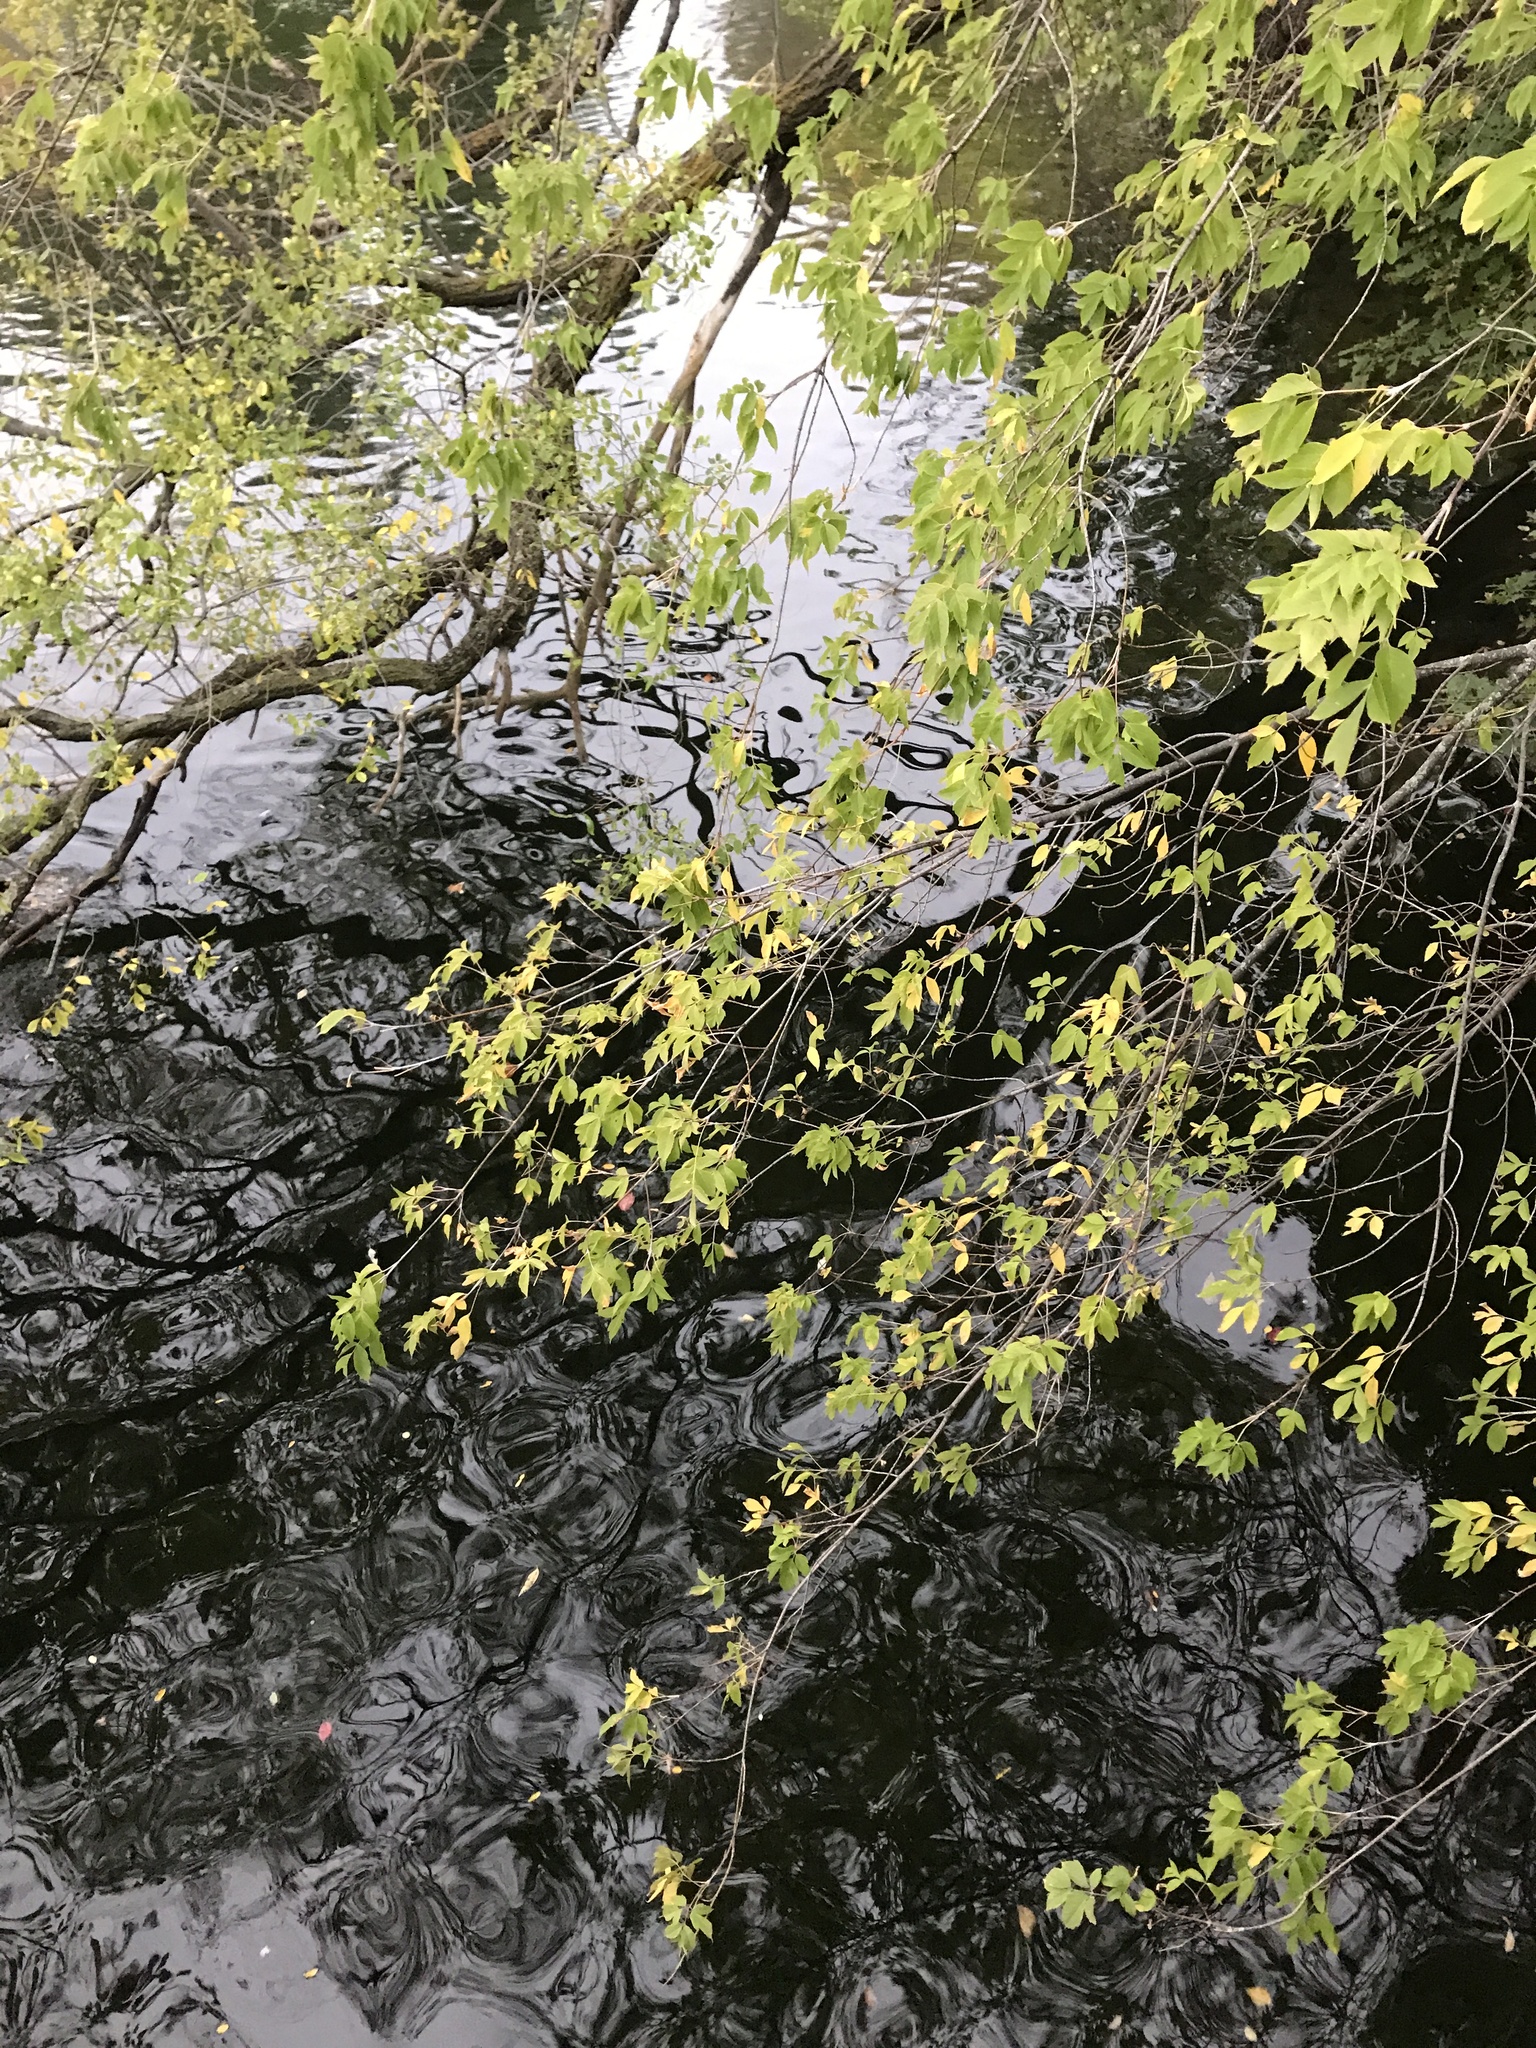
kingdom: Plantae
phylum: Tracheophyta
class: Magnoliopsida
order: Sapindales
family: Sapindaceae
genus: Acer
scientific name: Acer negundo
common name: Ashleaf maple
